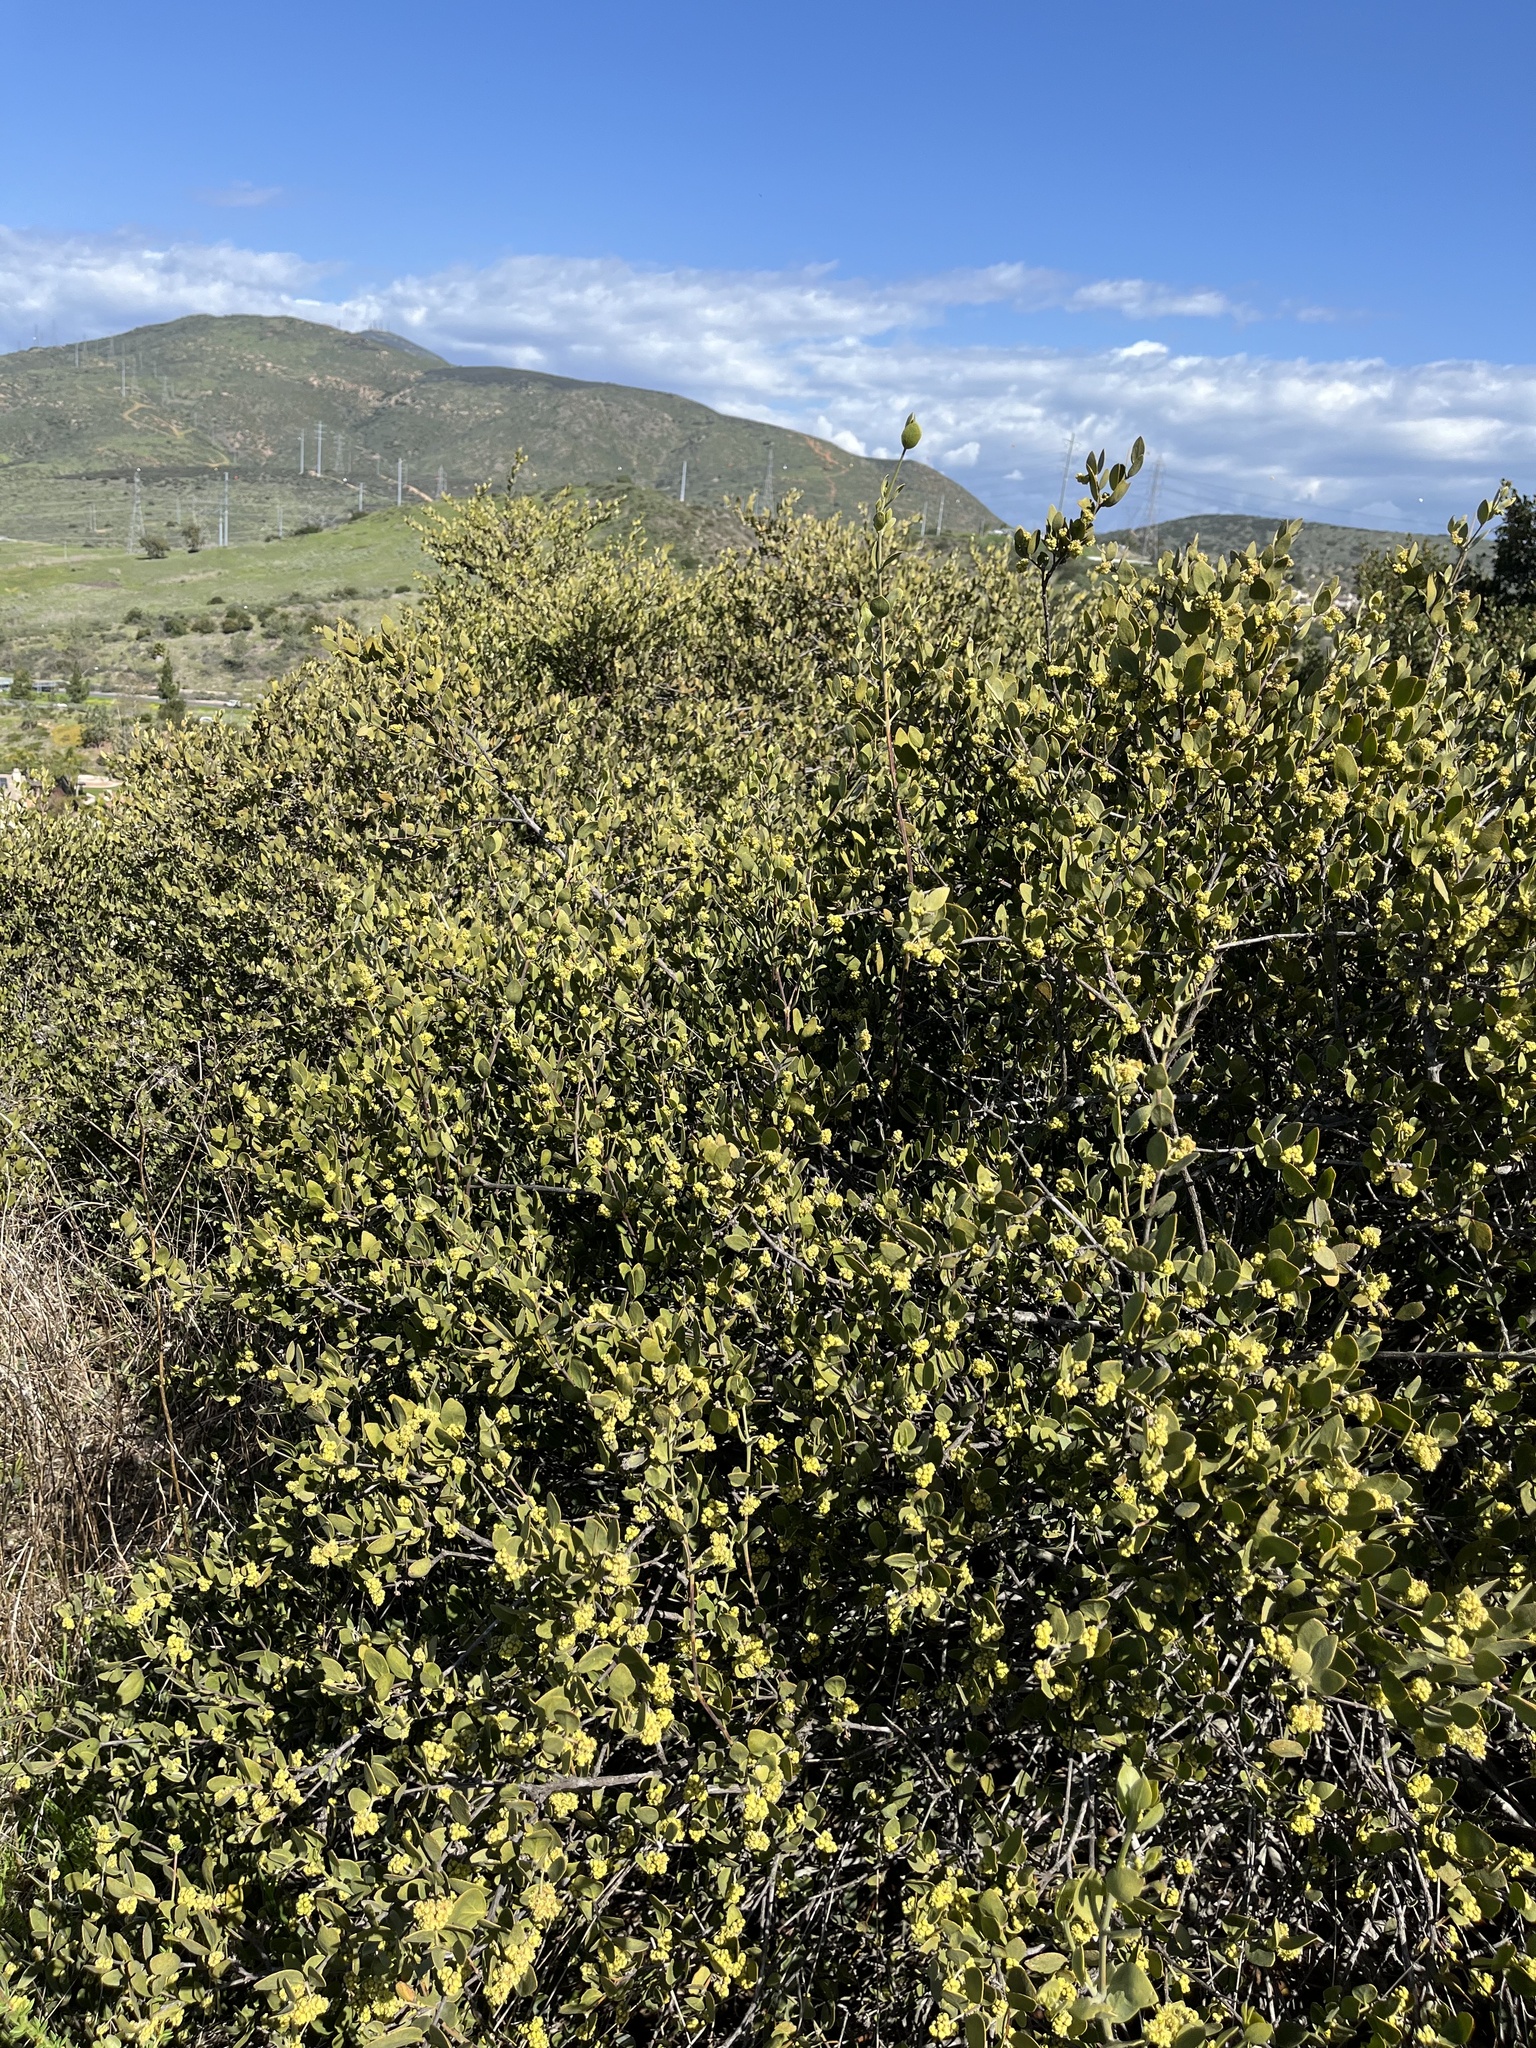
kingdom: Plantae
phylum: Tracheophyta
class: Magnoliopsida
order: Caryophyllales
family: Simmondsiaceae
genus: Simmondsia
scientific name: Simmondsia chinensis
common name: Jojoba
